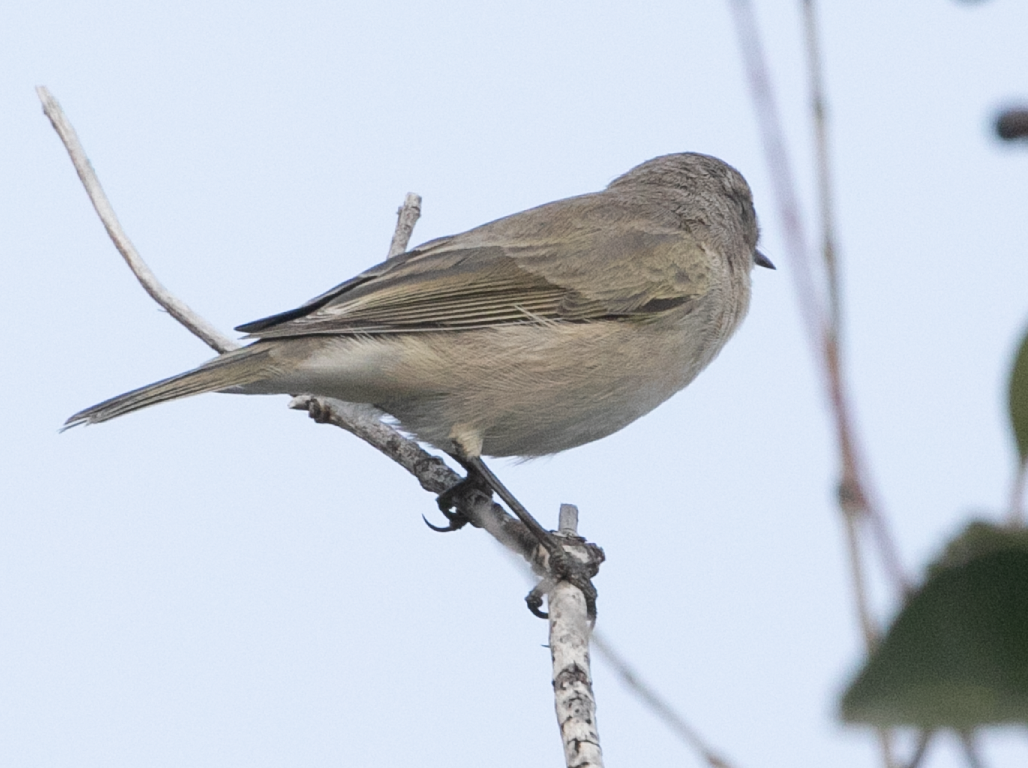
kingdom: Animalia
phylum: Chordata
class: Aves
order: Passeriformes
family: Phylloscopidae
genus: Phylloscopus
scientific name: Phylloscopus collybita
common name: Common chiffchaff
